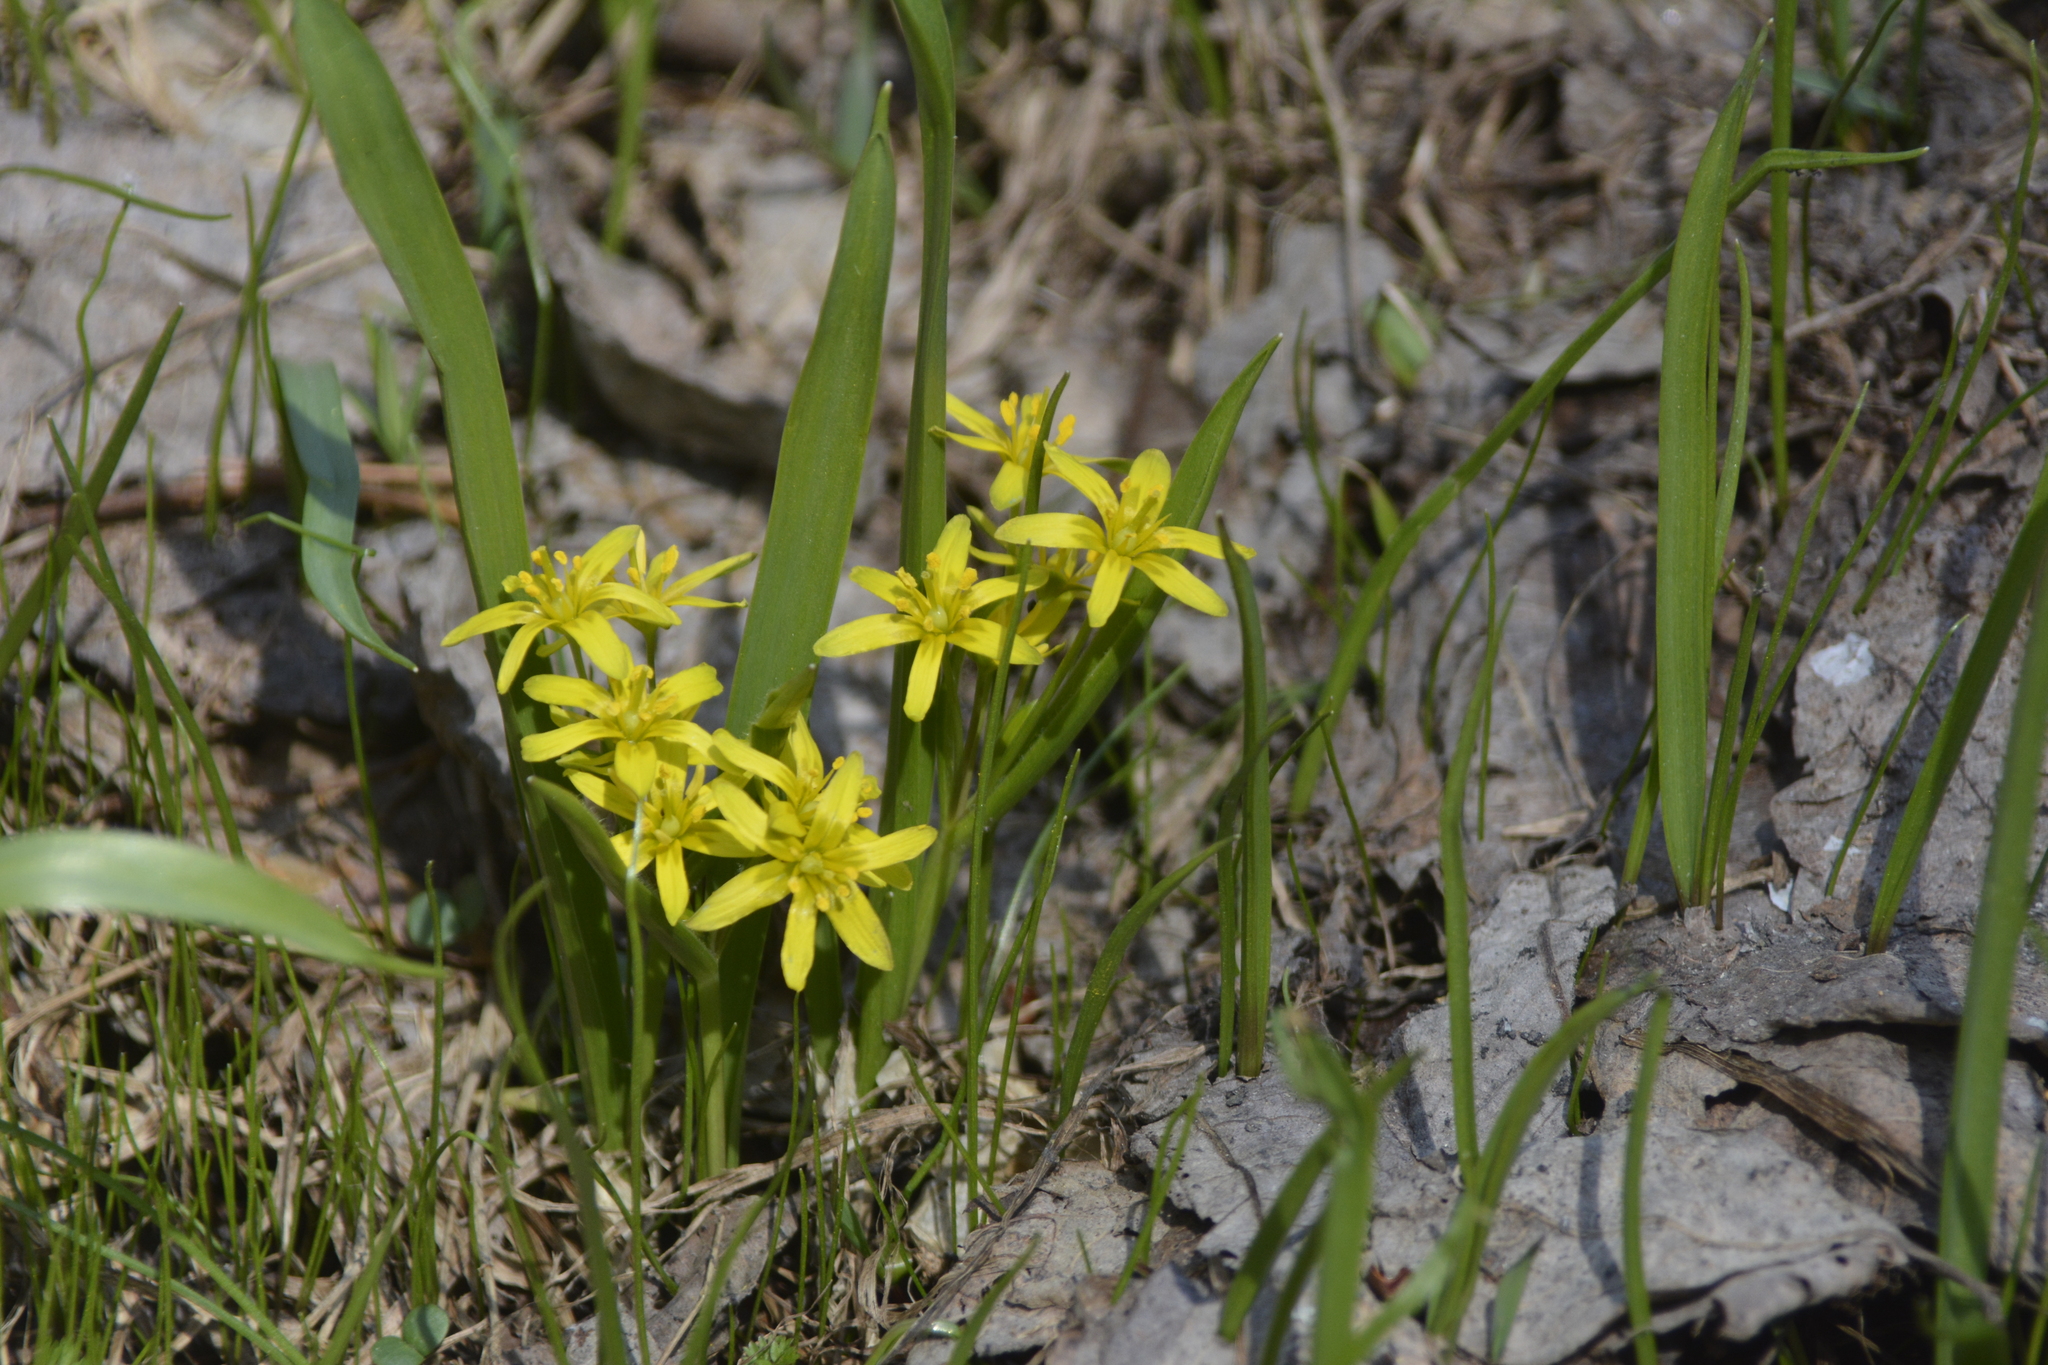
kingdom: Plantae
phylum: Tracheophyta
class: Liliopsida
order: Liliales
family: Liliaceae
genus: Gagea
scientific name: Gagea lutea
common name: Yellow star-of-bethlehem
